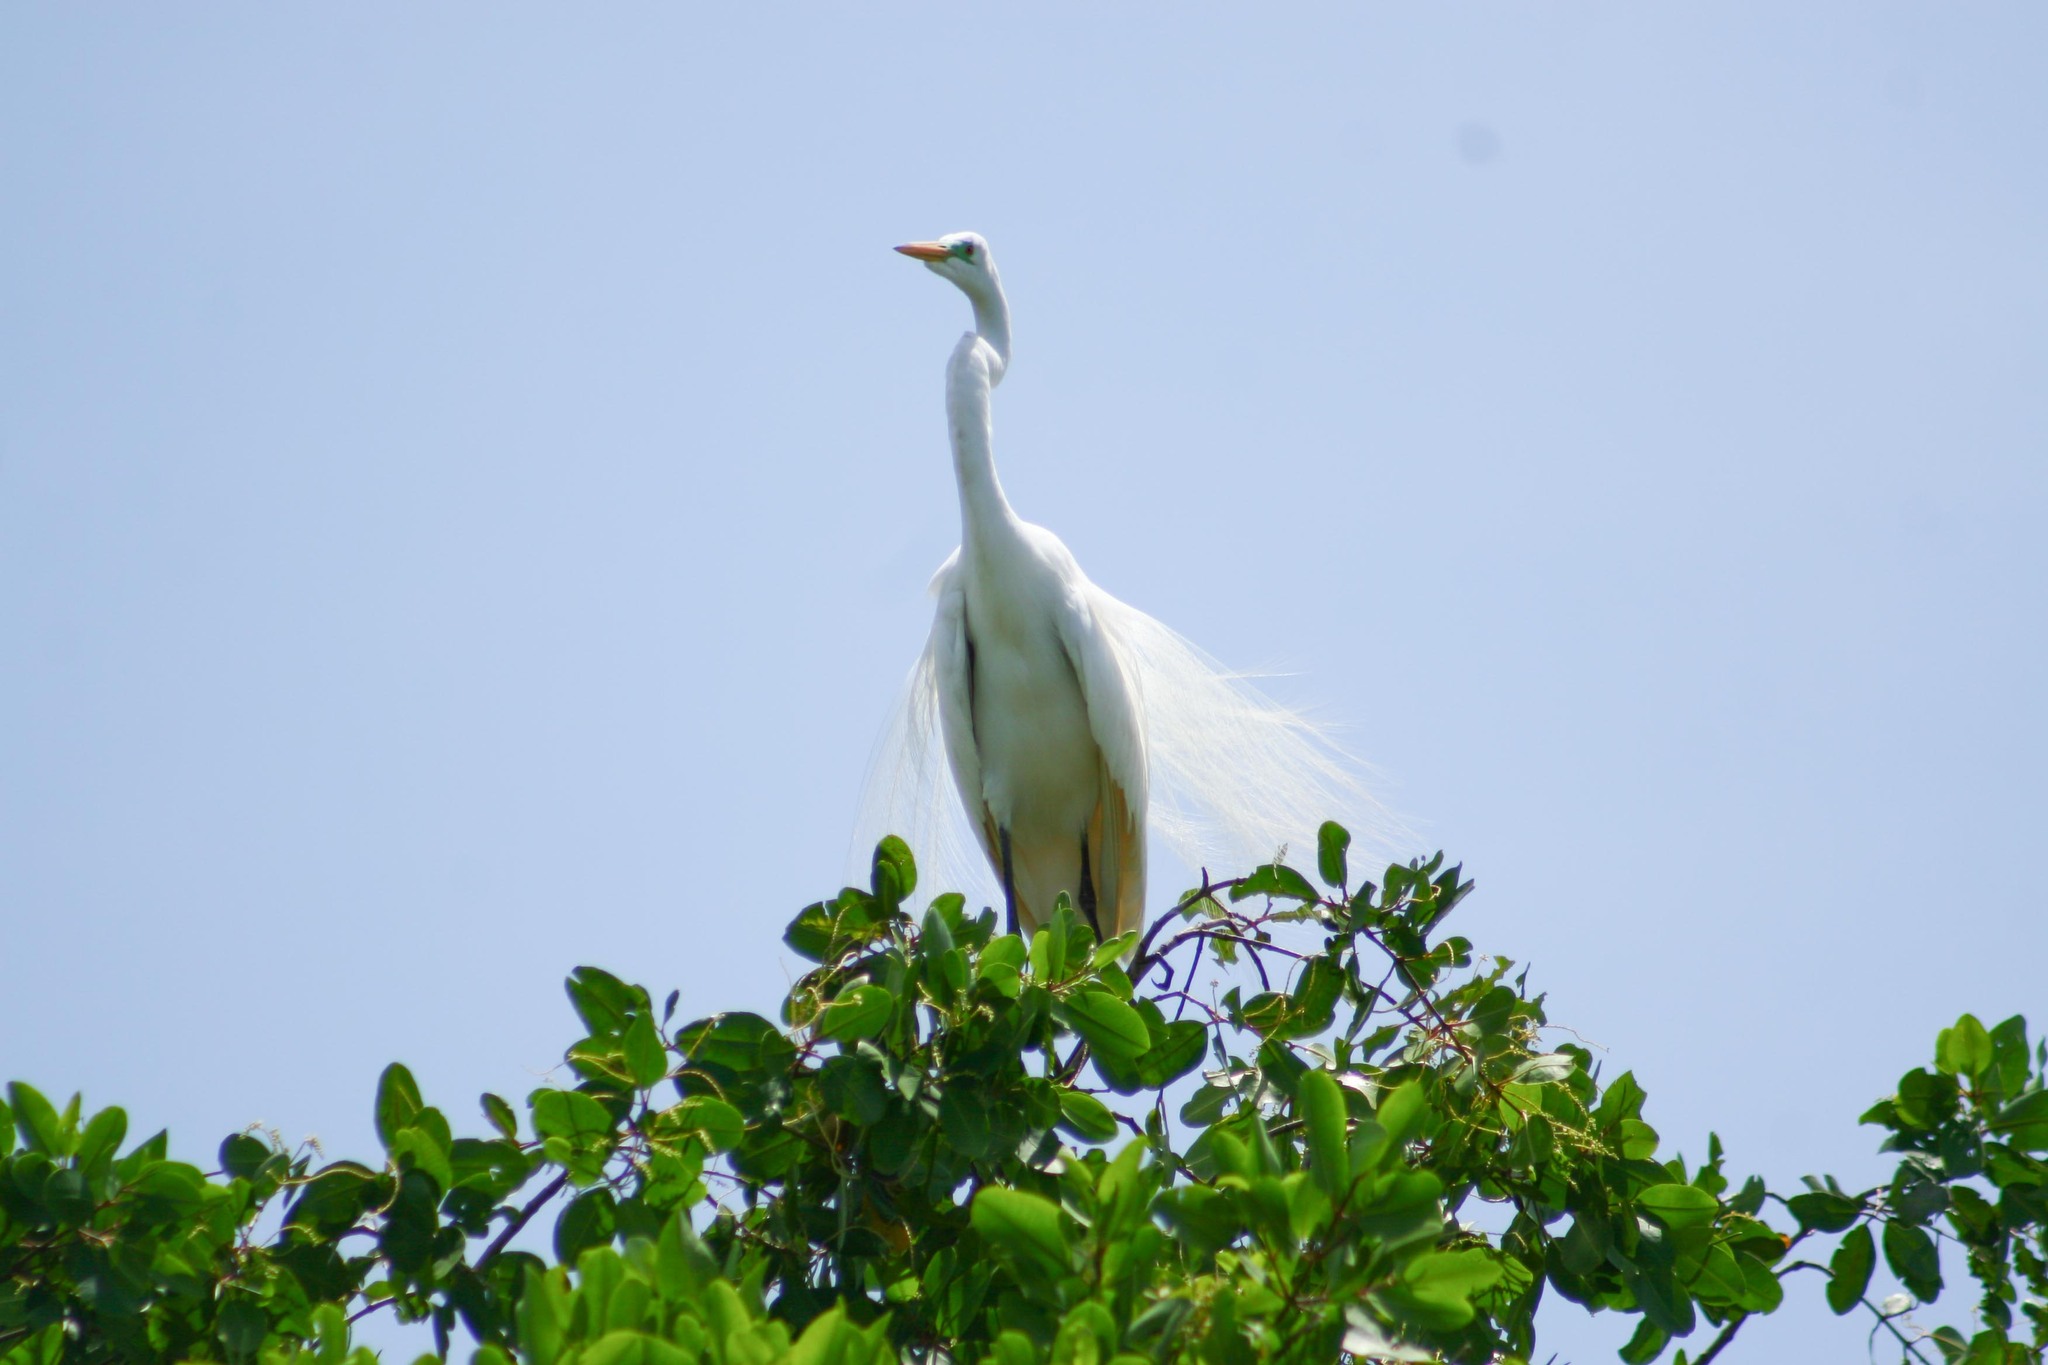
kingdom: Animalia
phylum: Chordata
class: Aves
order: Pelecaniformes
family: Ardeidae
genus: Ardea
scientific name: Ardea alba
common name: Great egret
